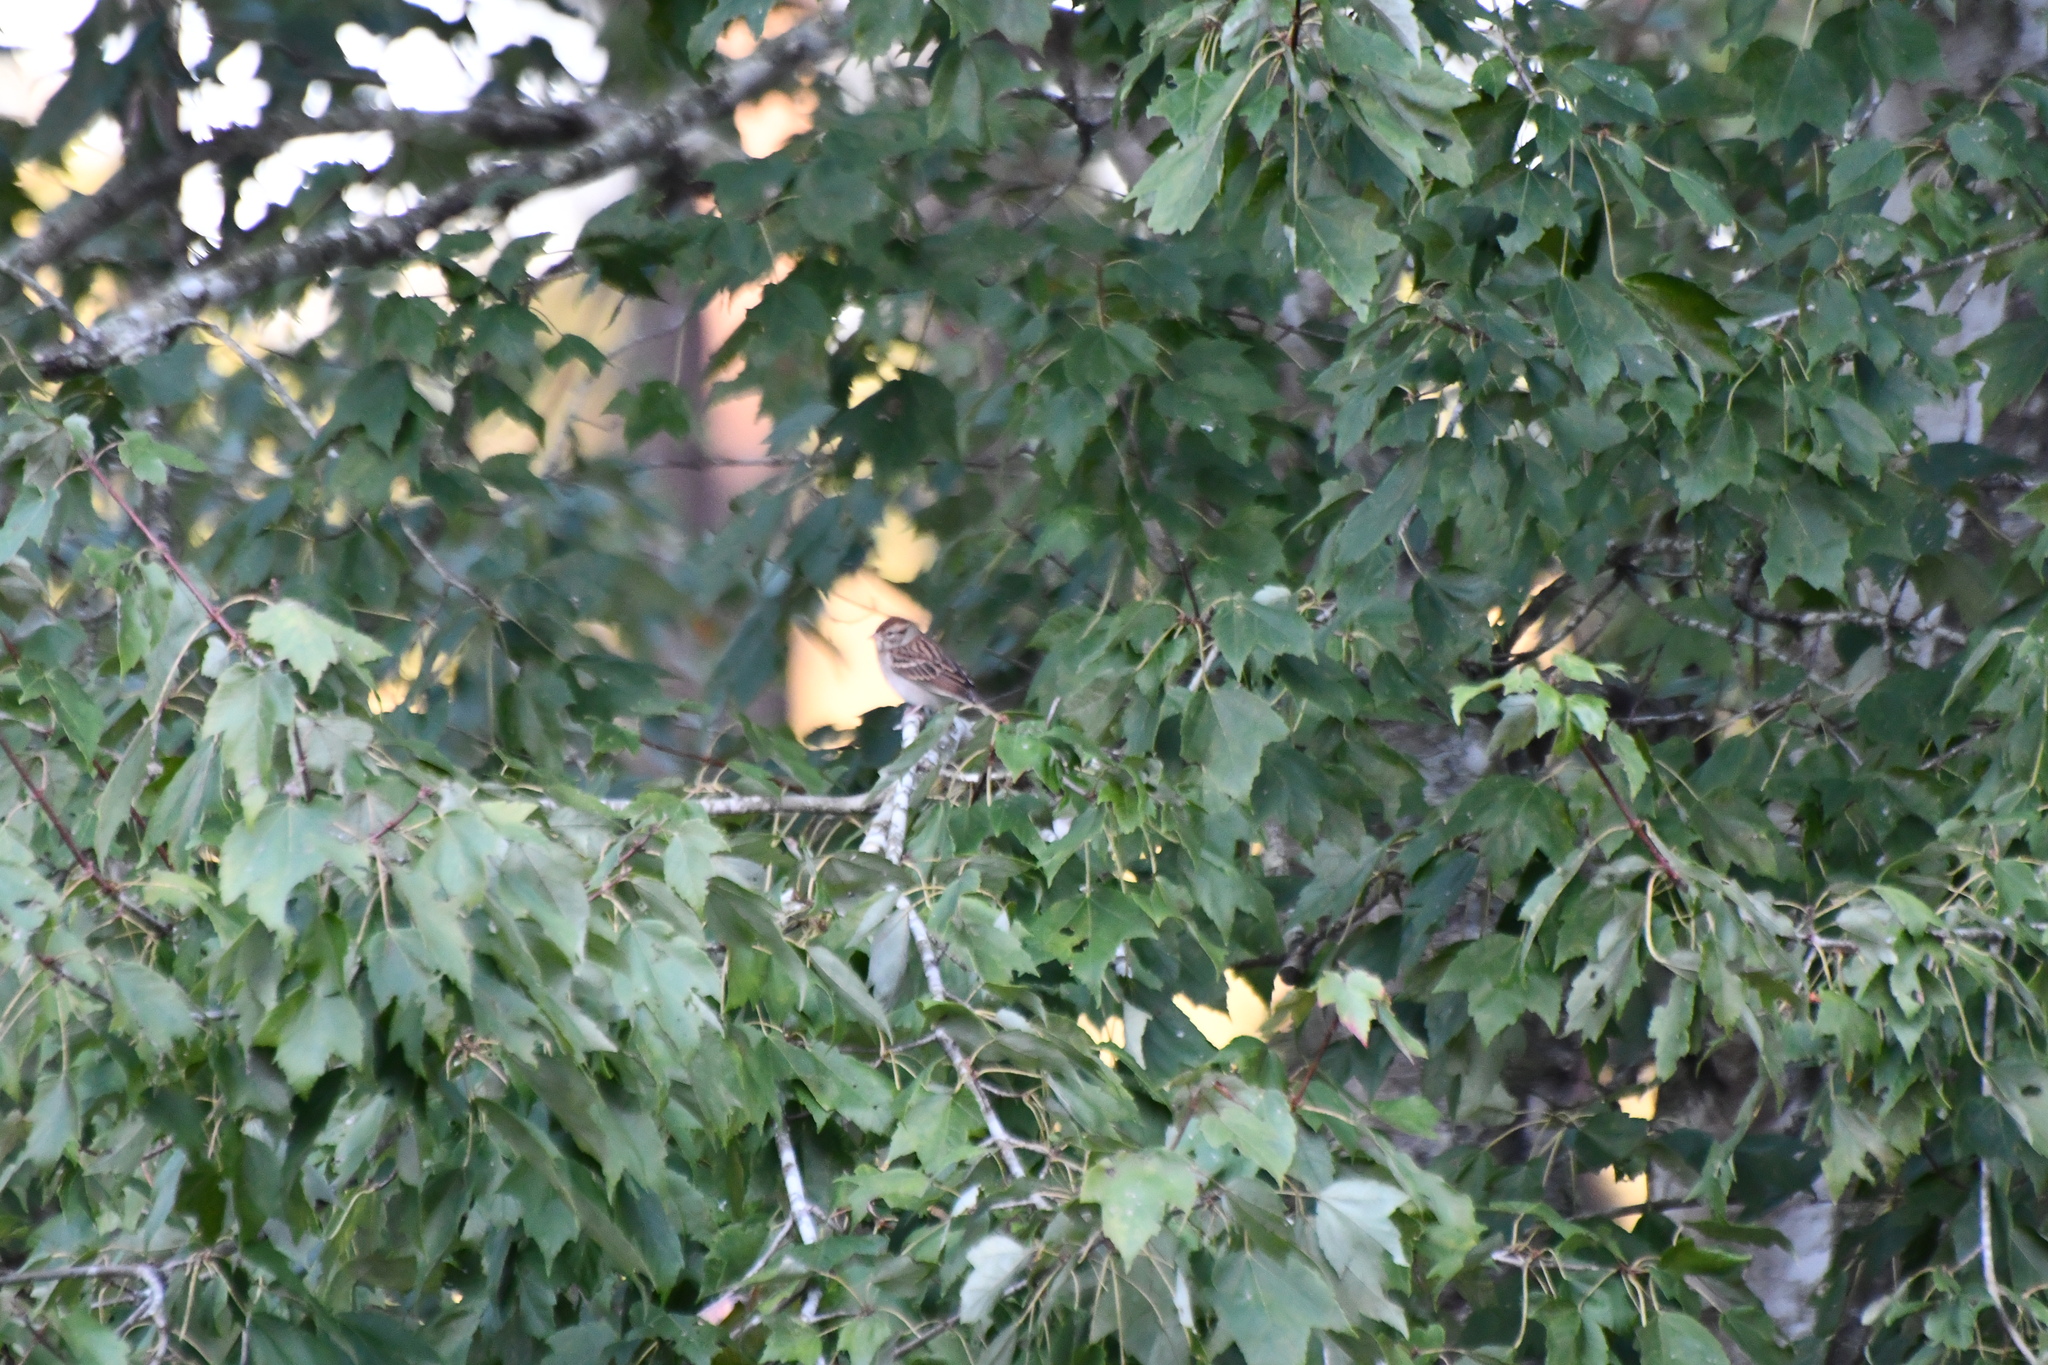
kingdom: Animalia
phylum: Chordata
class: Aves
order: Passeriformes
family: Passerellidae
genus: Spizella
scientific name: Spizella passerina
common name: Chipping sparrow
